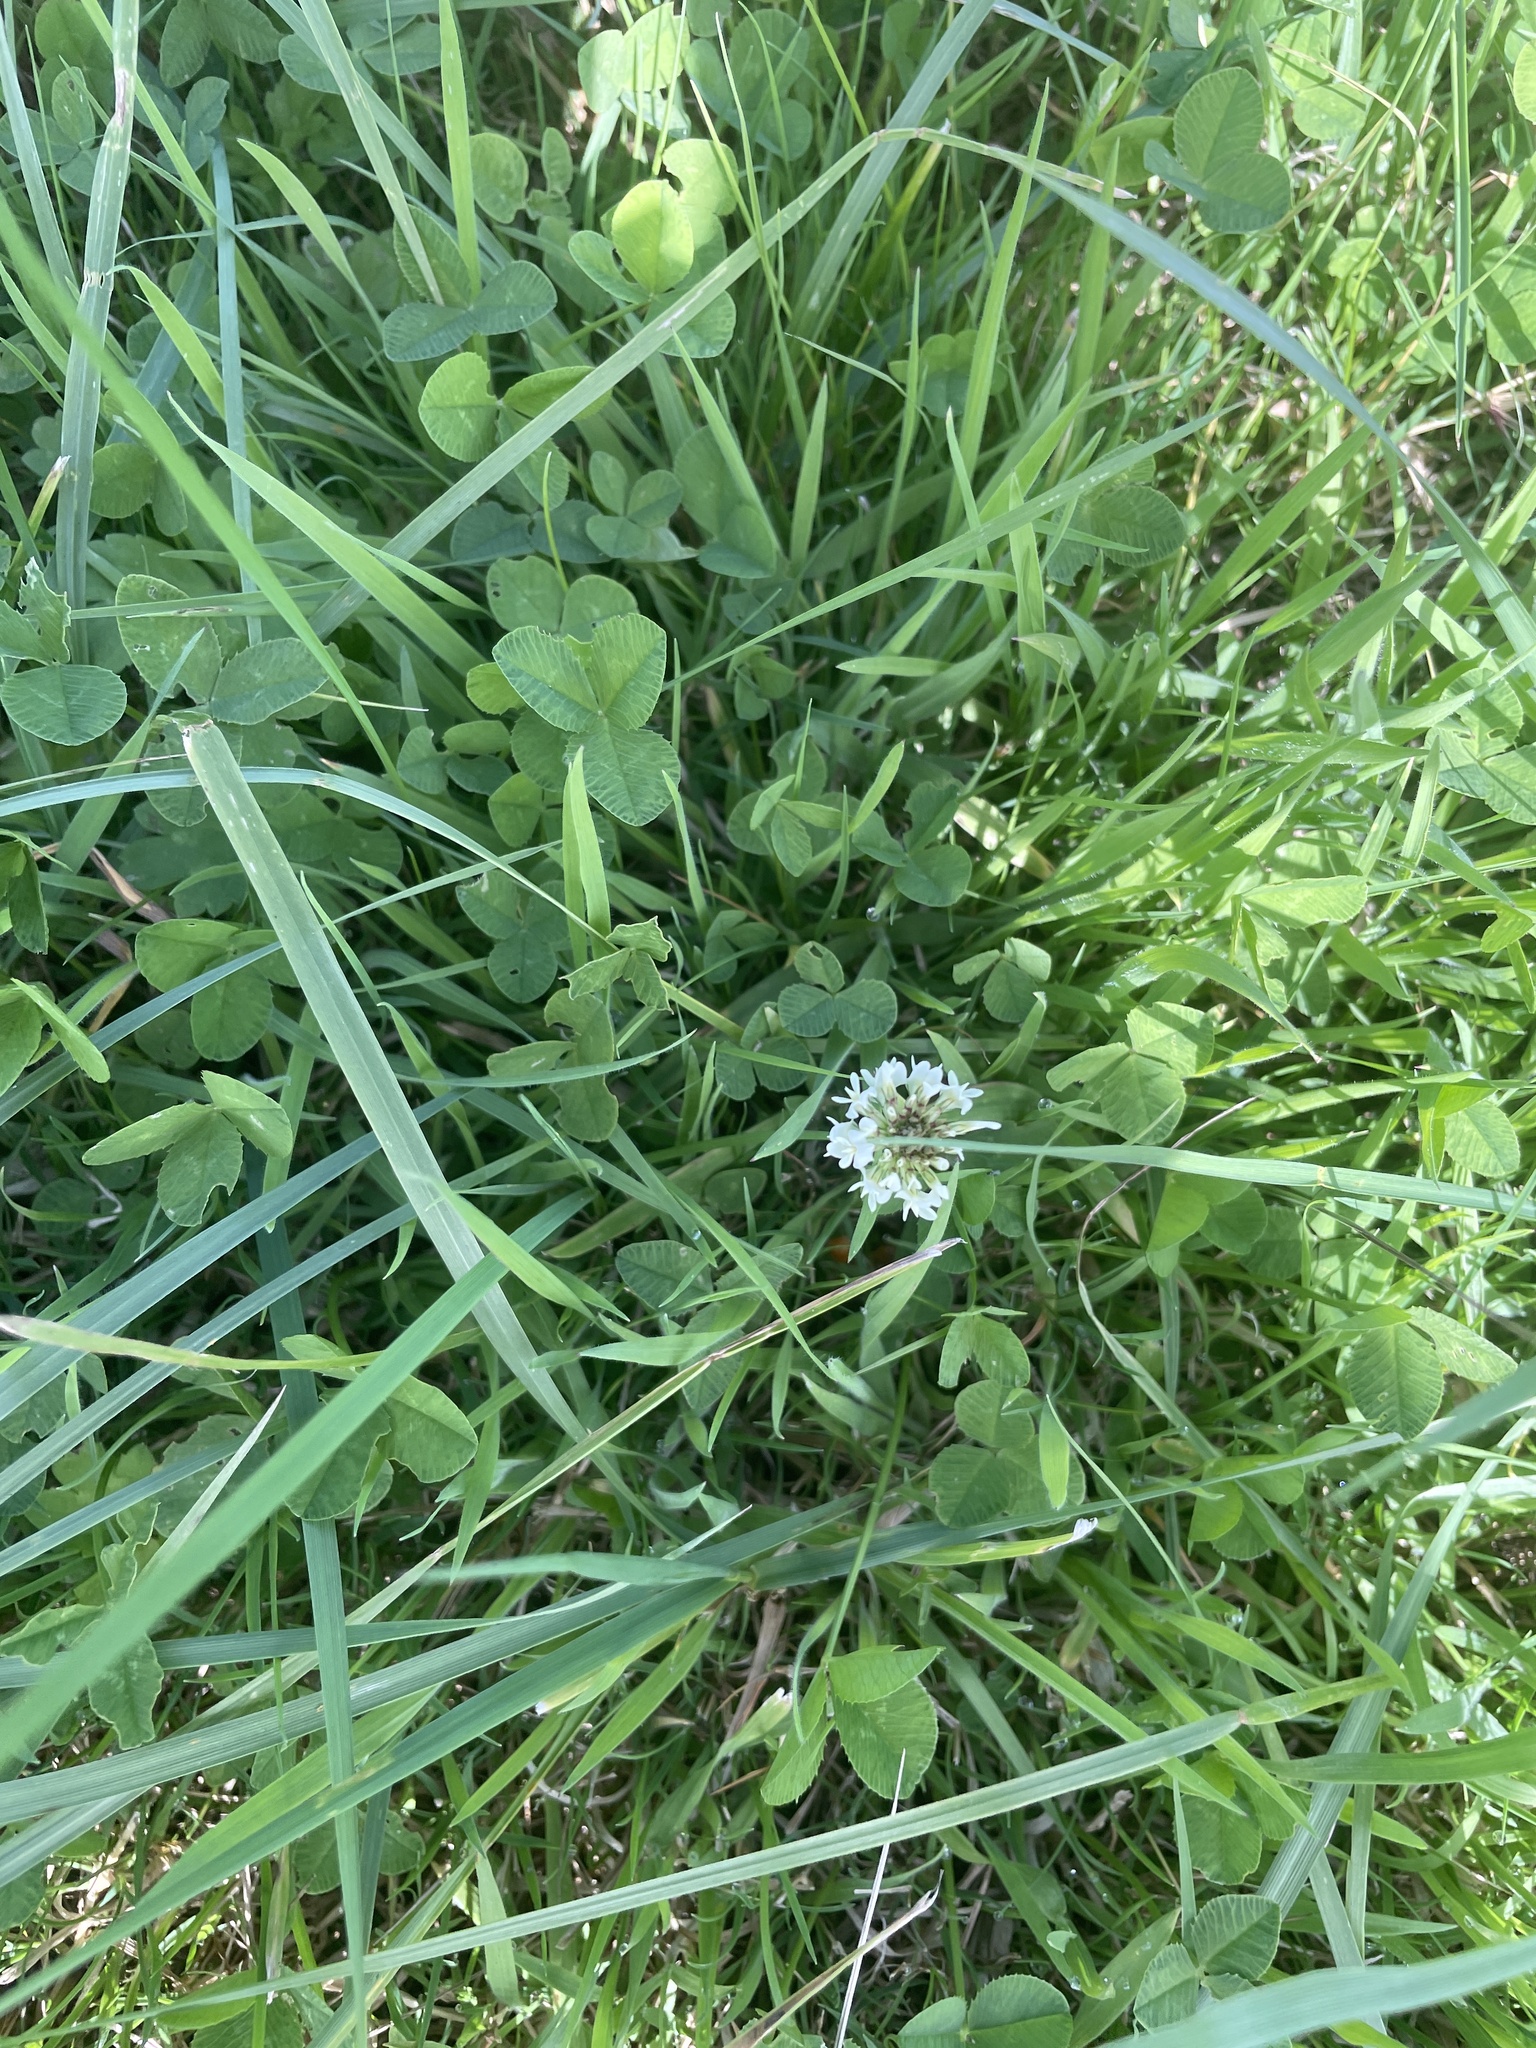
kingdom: Plantae
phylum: Tracheophyta
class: Magnoliopsida
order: Fabales
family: Fabaceae
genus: Trifolium
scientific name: Trifolium repens
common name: White clover
